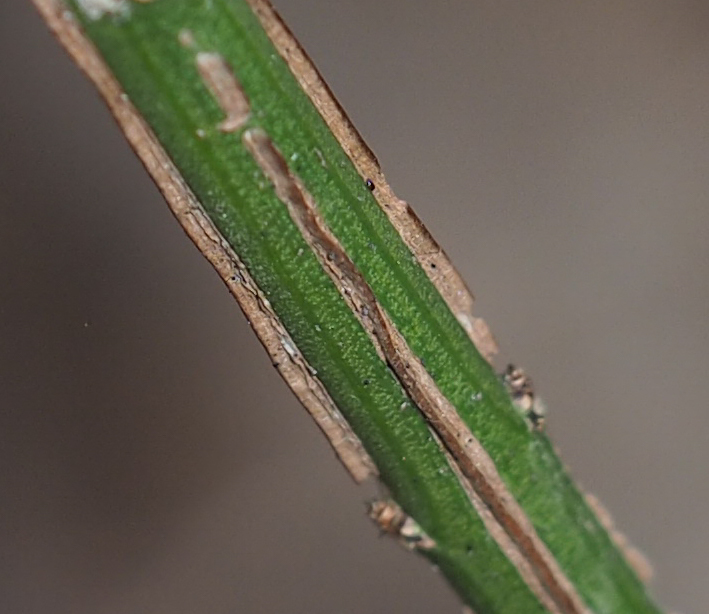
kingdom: Plantae
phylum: Tracheophyta
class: Magnoliopsida
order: Celastrales
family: Celastraceae
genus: Euonymus
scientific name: Euonymus alatus
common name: Winged euonymus
